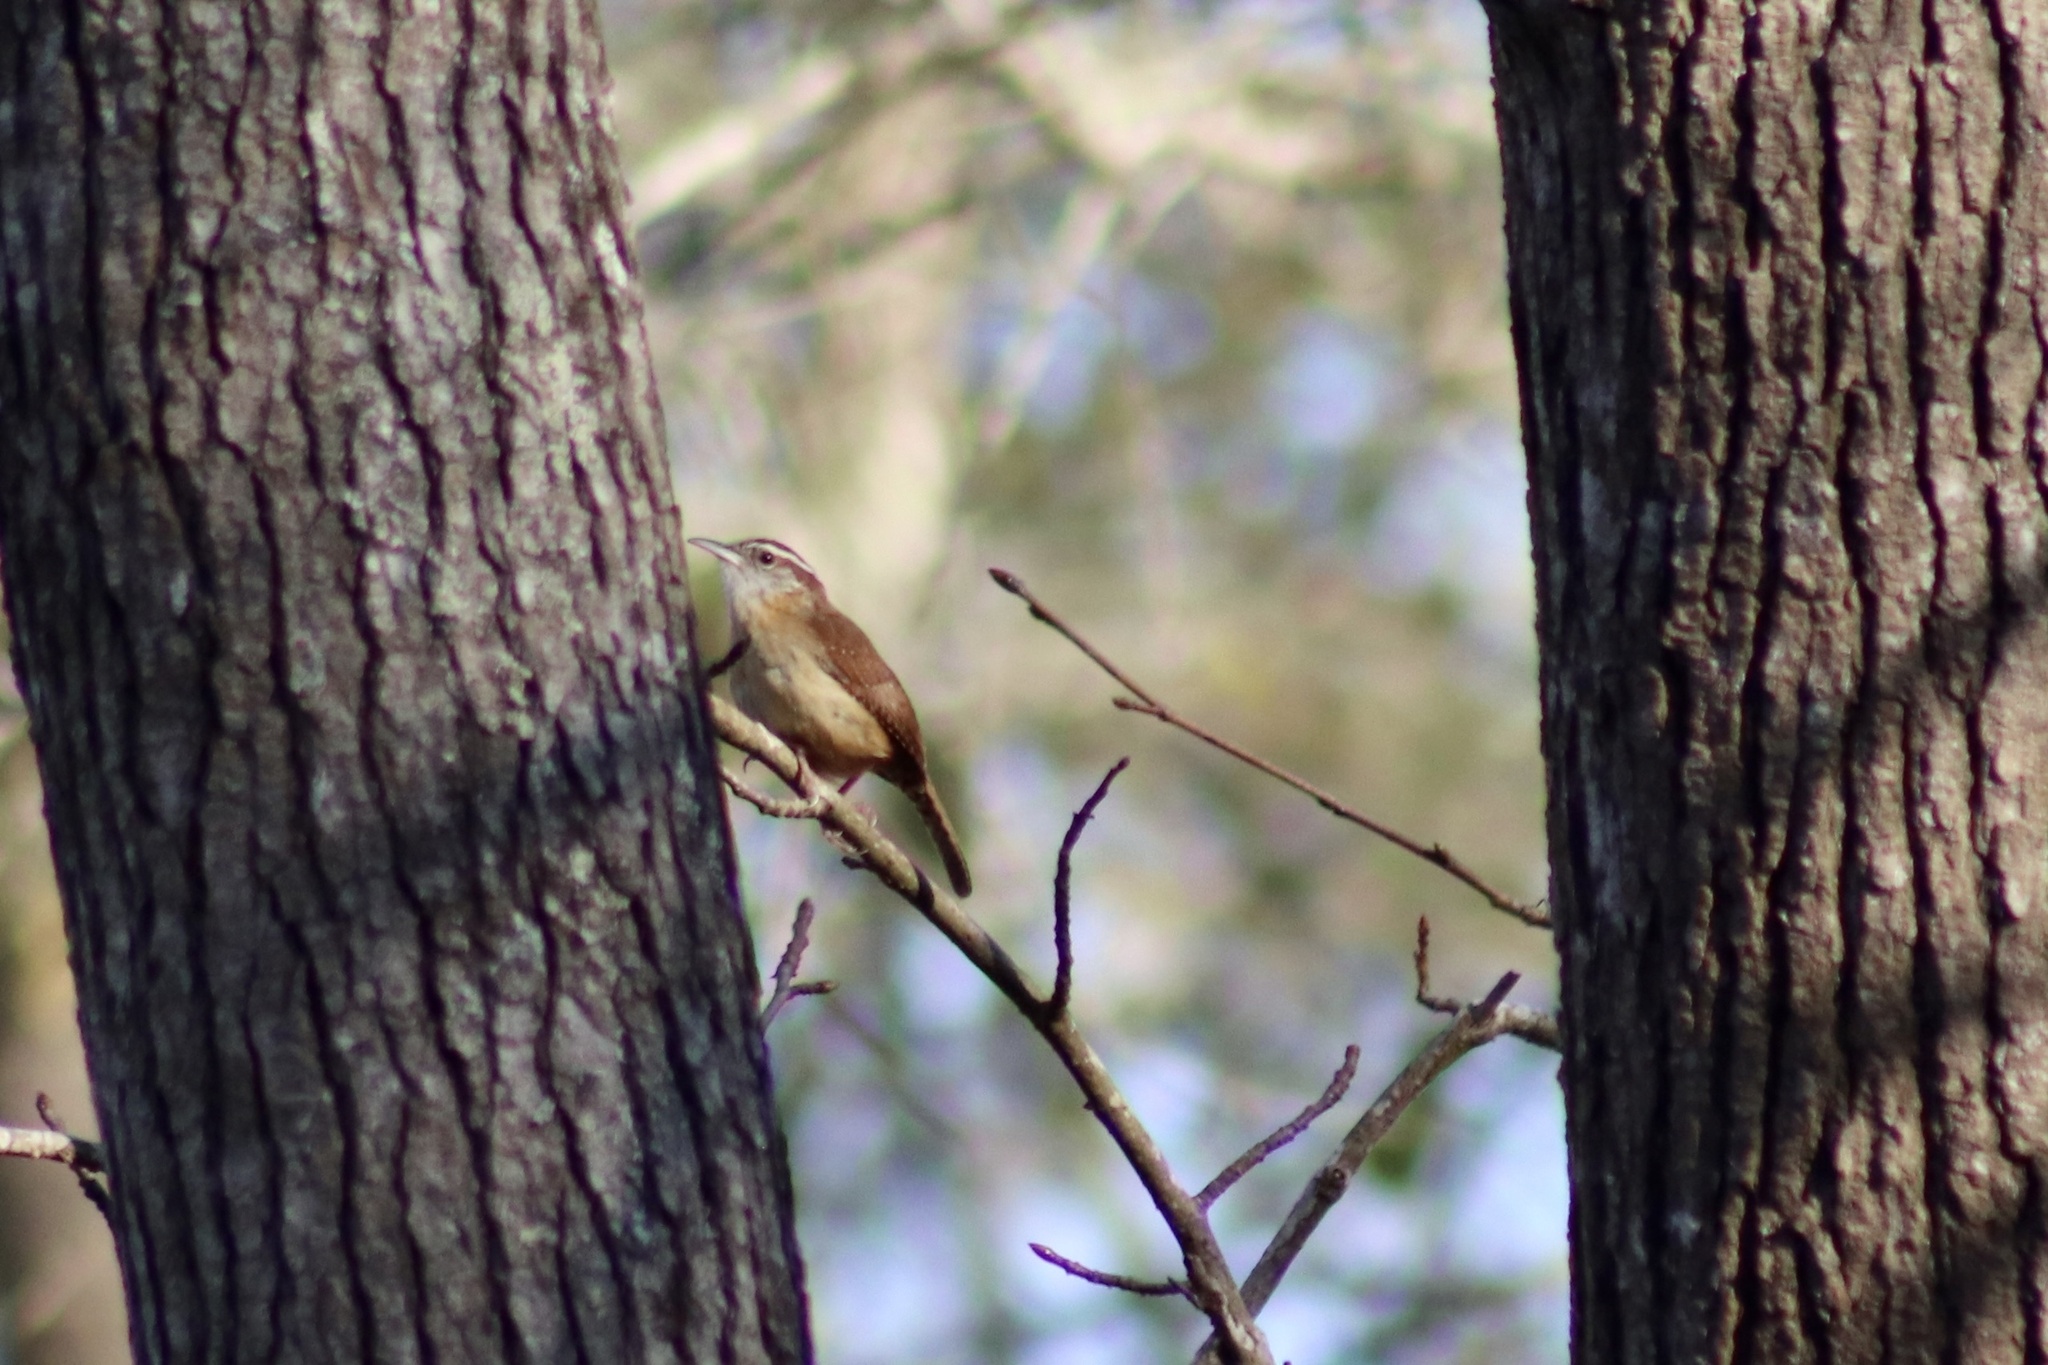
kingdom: Animalia
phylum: Chordata
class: Aves
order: Passeriformes
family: Troglodytidae
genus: Thryothorus
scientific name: Thryothorus ludovicianus
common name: Carolina wren
